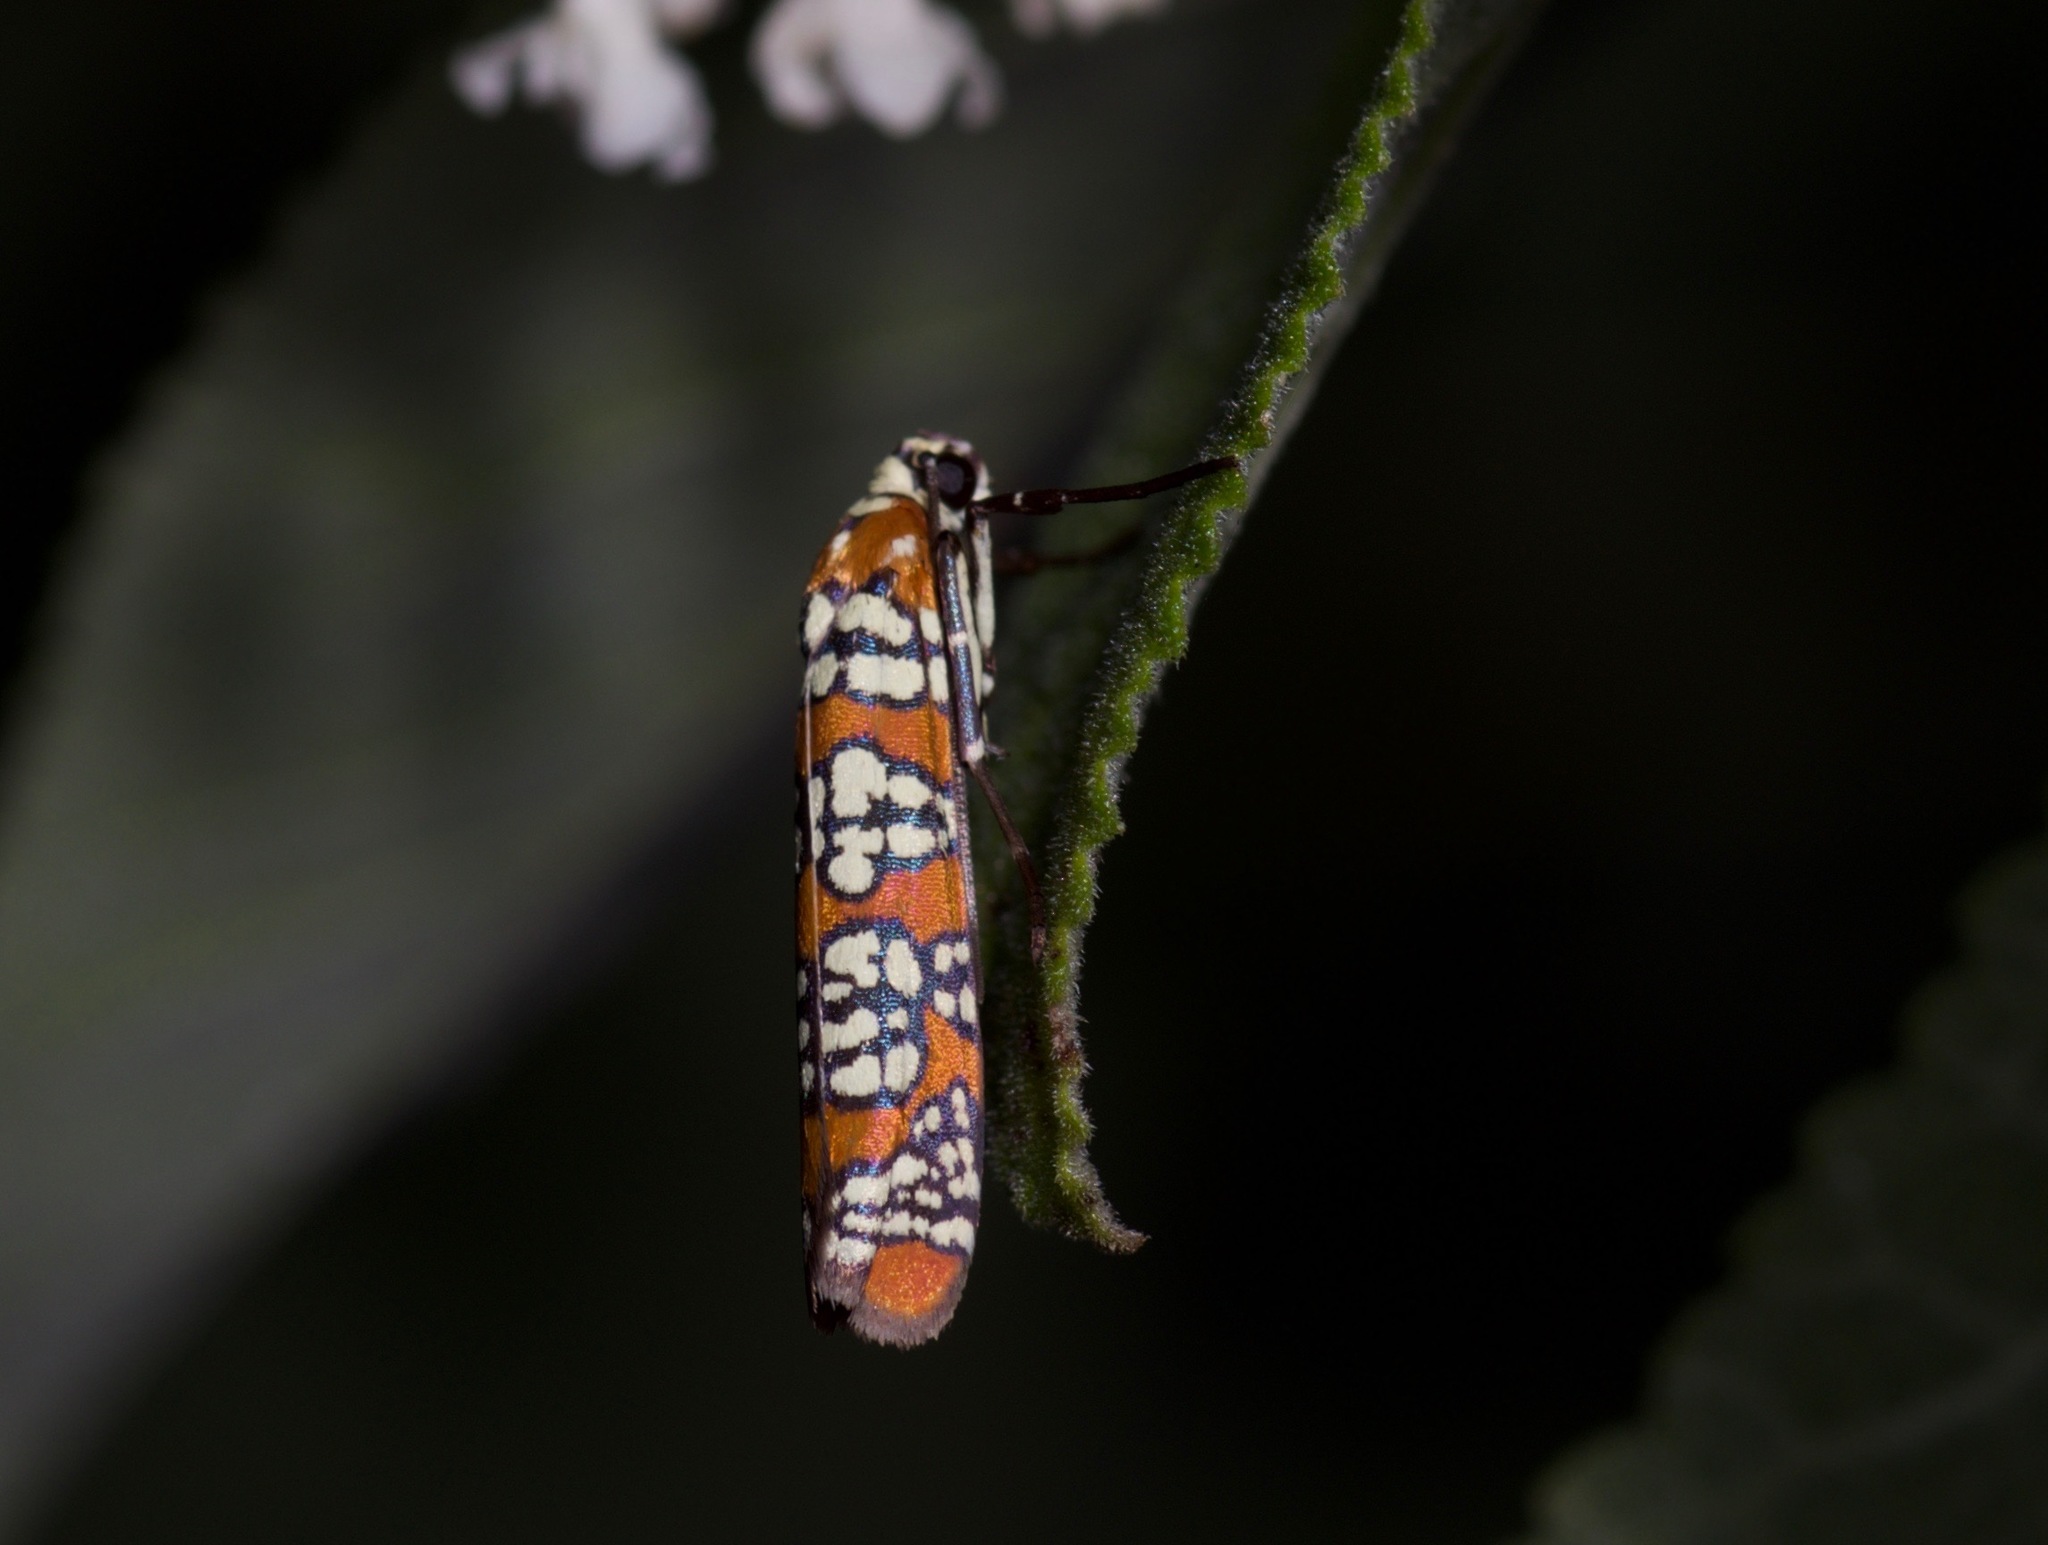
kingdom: Animalia
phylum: Arthropoda
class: Insecta
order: Lepidoptera
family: Attevidae
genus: Atteva
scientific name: Atteva punctella
